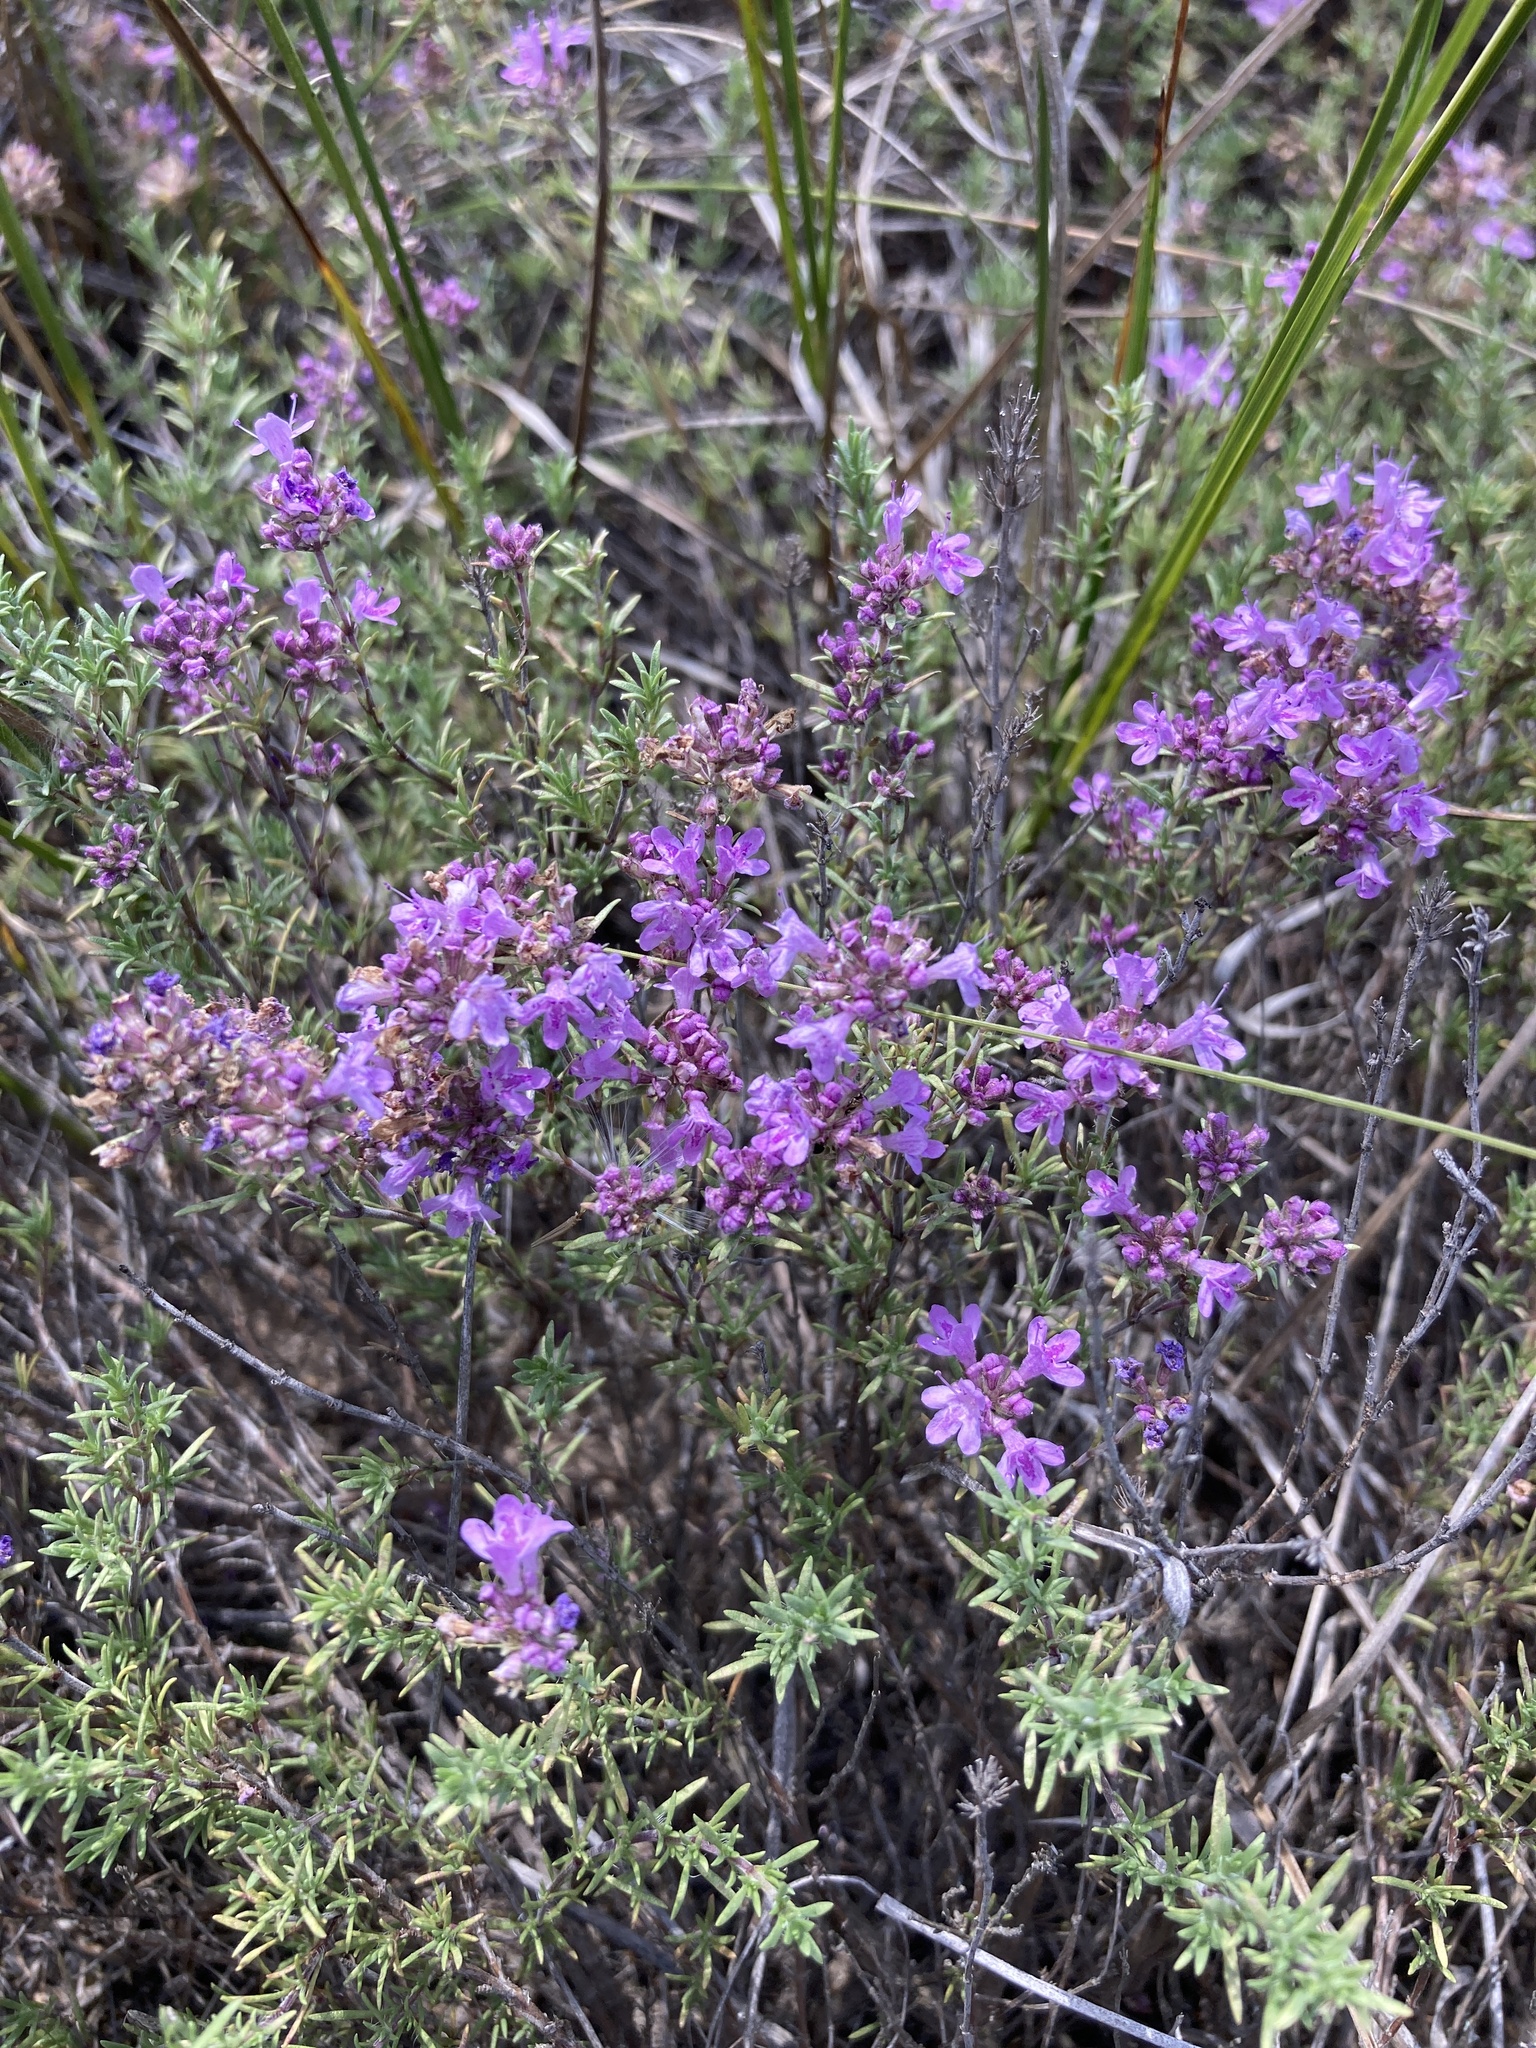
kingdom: Plantae
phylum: Tracheophyta
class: Magnoliopsida
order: Lamiales
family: Lamiaceae
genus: Thymus
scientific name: Thymus pallasianus
